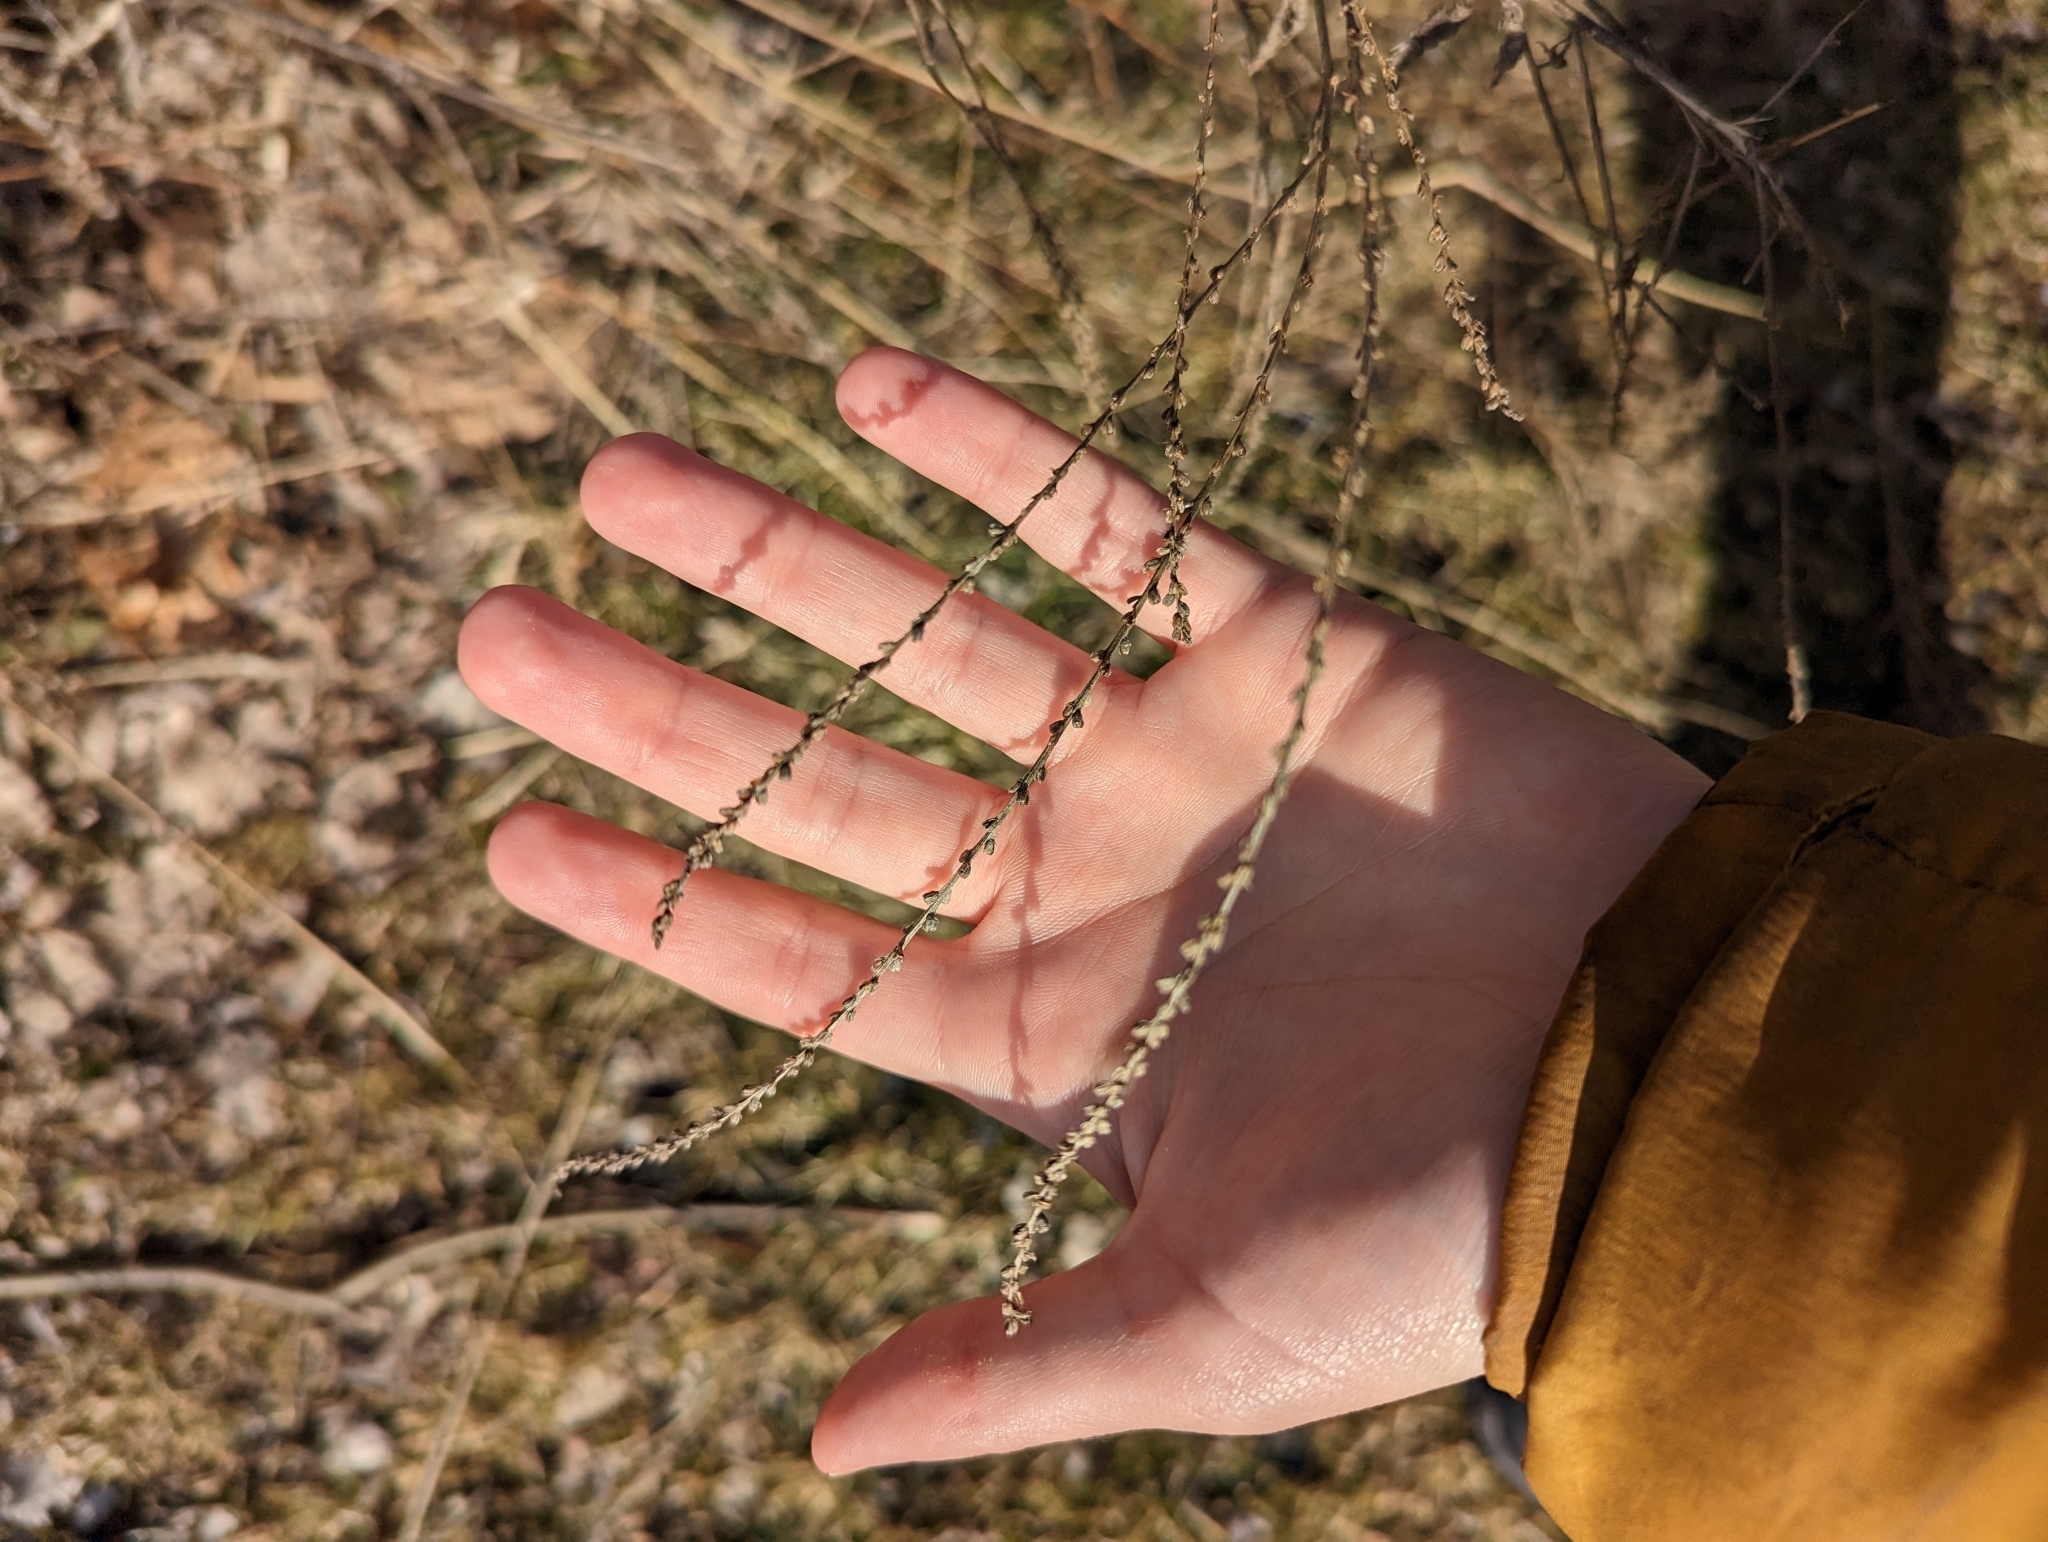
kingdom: Plantae
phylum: Tracheophyta
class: Magnoliopsida
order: Lamiales
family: Verbenaceae
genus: Verbena
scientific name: Verbena urticifolia
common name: Nettle-leaved vervain
